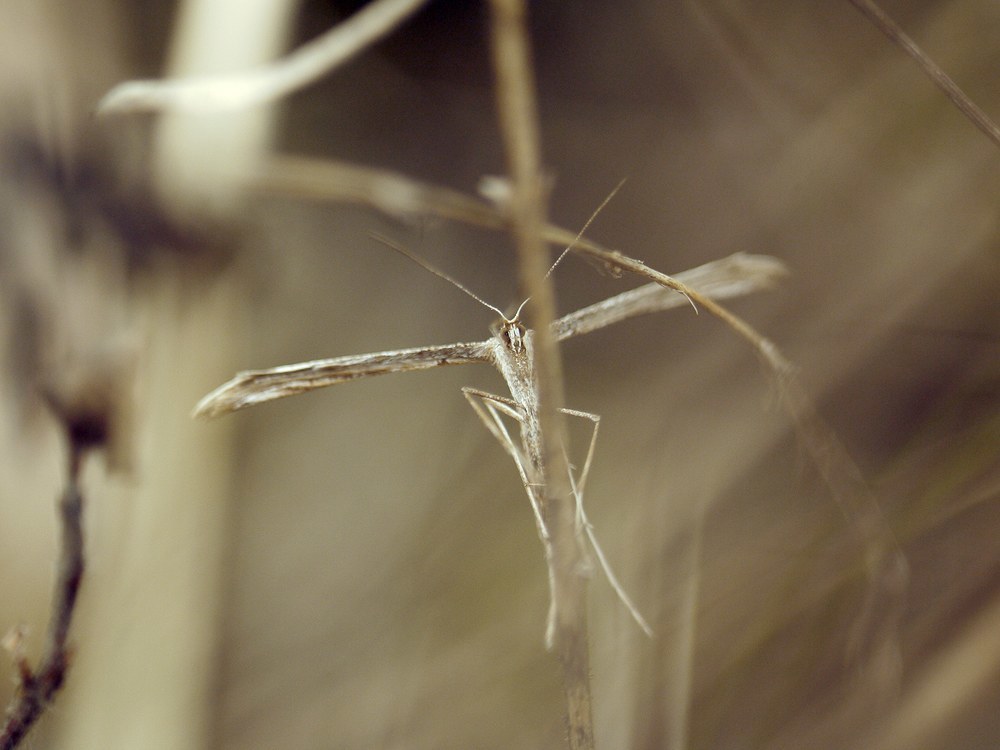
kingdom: Animalia
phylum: Arthropoda
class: Insecta
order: Lepidoptera
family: Pterophoridae
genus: Emmelina
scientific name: Emmelina monodactyla
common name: Common plume
